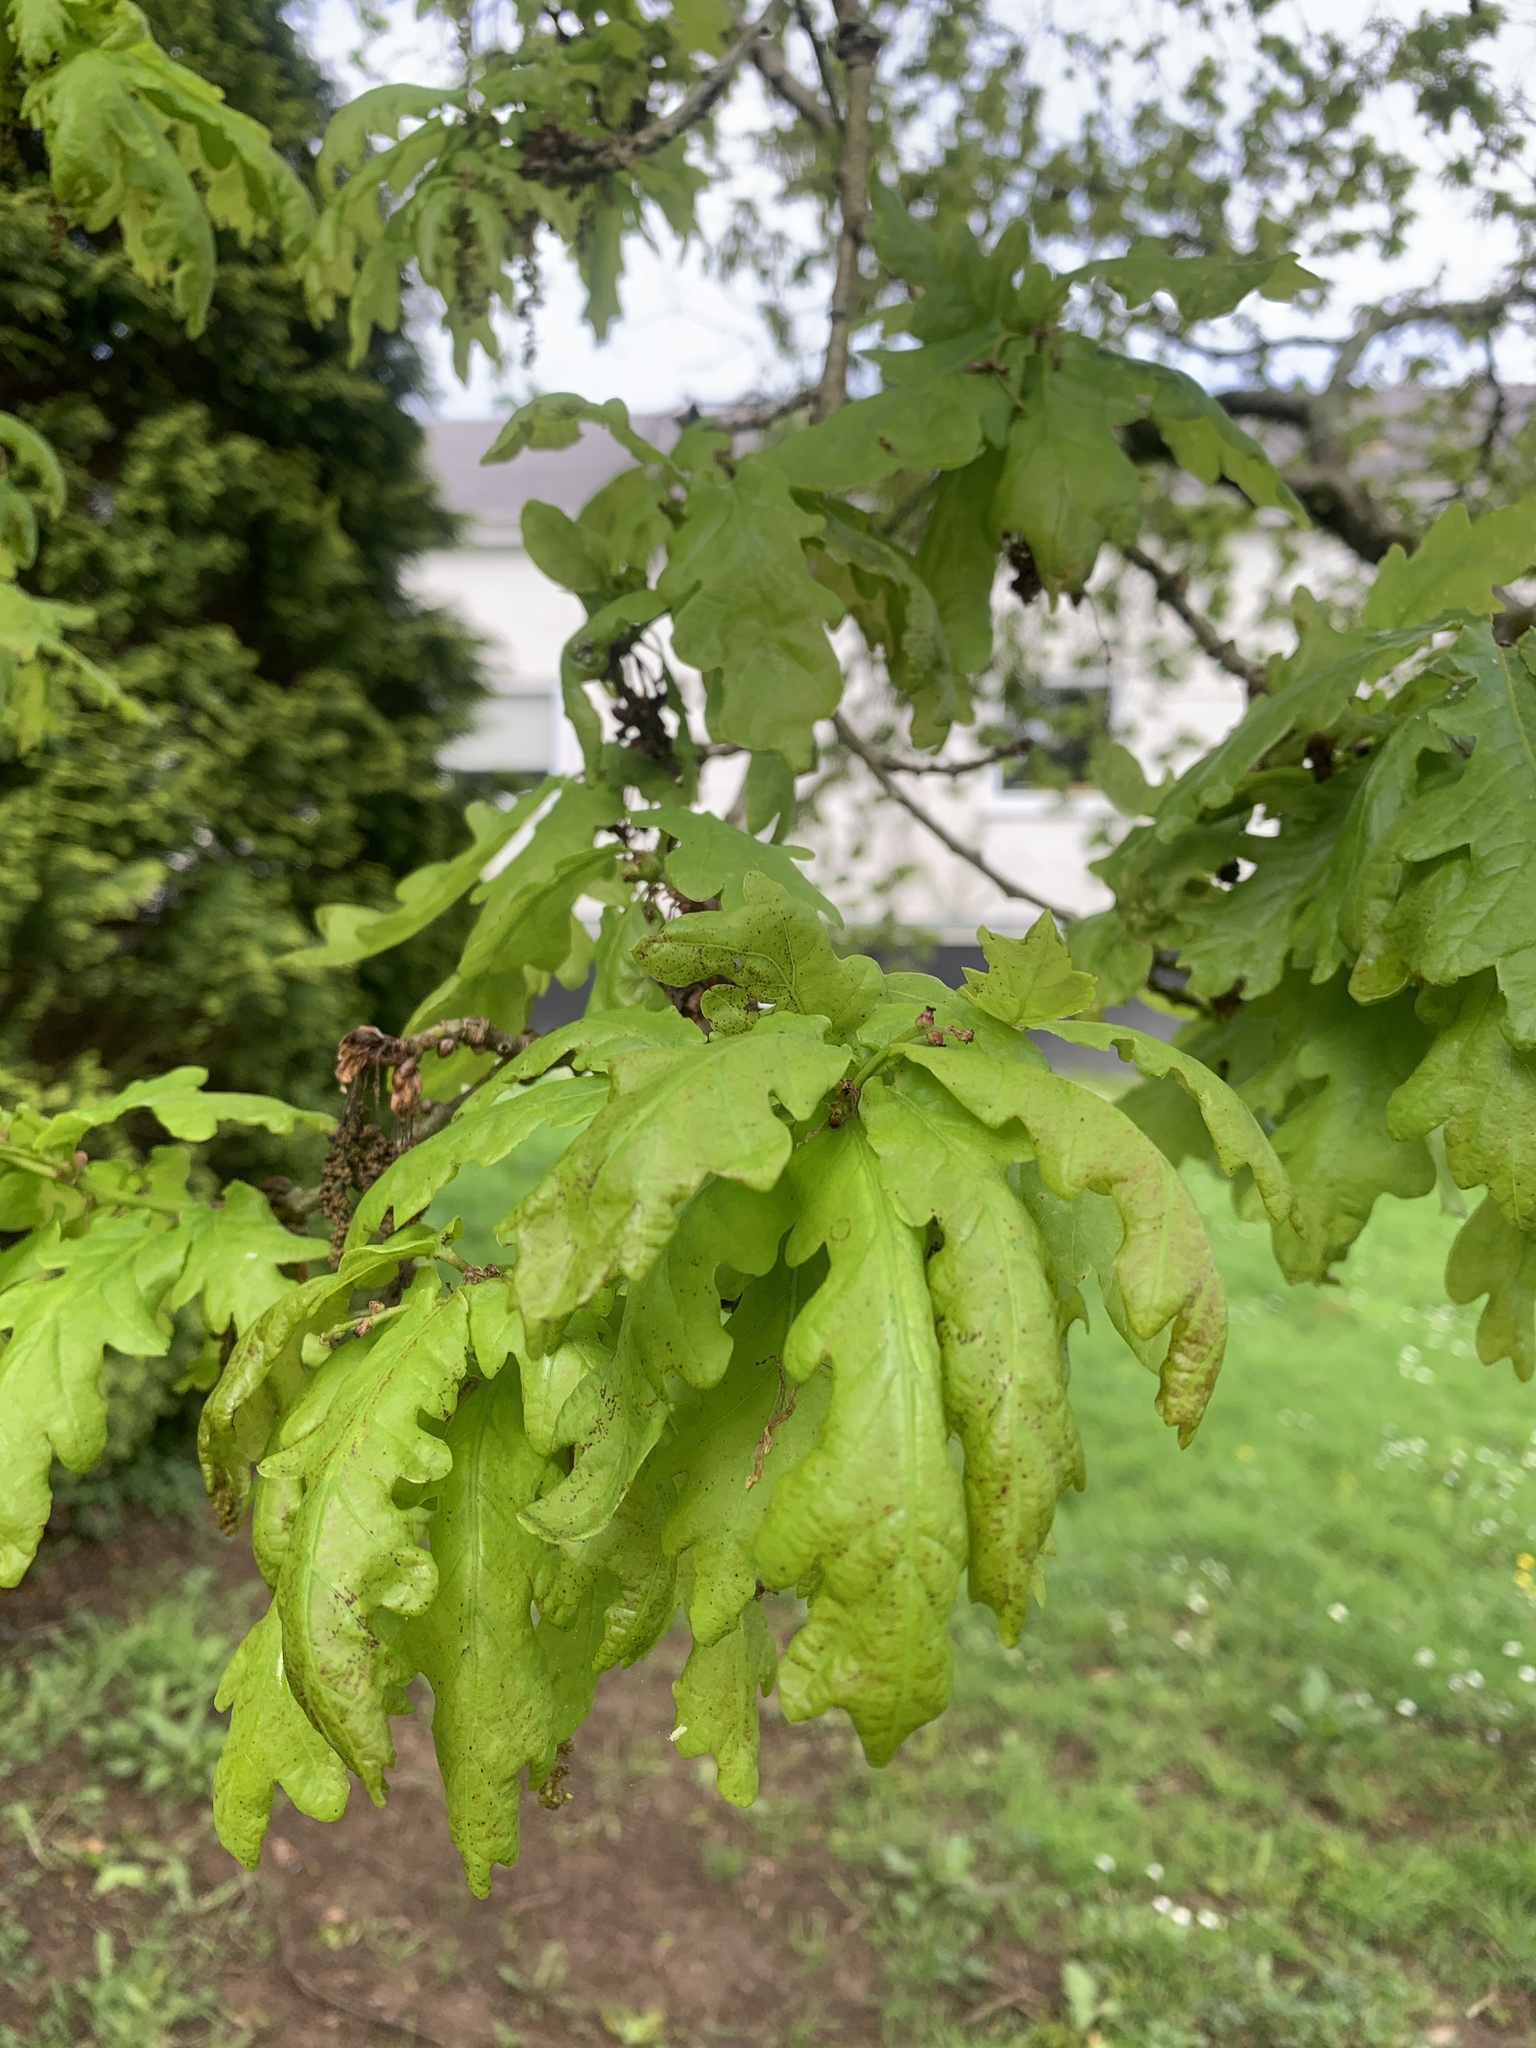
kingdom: Plantae
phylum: Tracheophyta
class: Magnoliopsida
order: Fagales
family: Fagaceae
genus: Quercus
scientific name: Quercus robur
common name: Pedunculate oak
